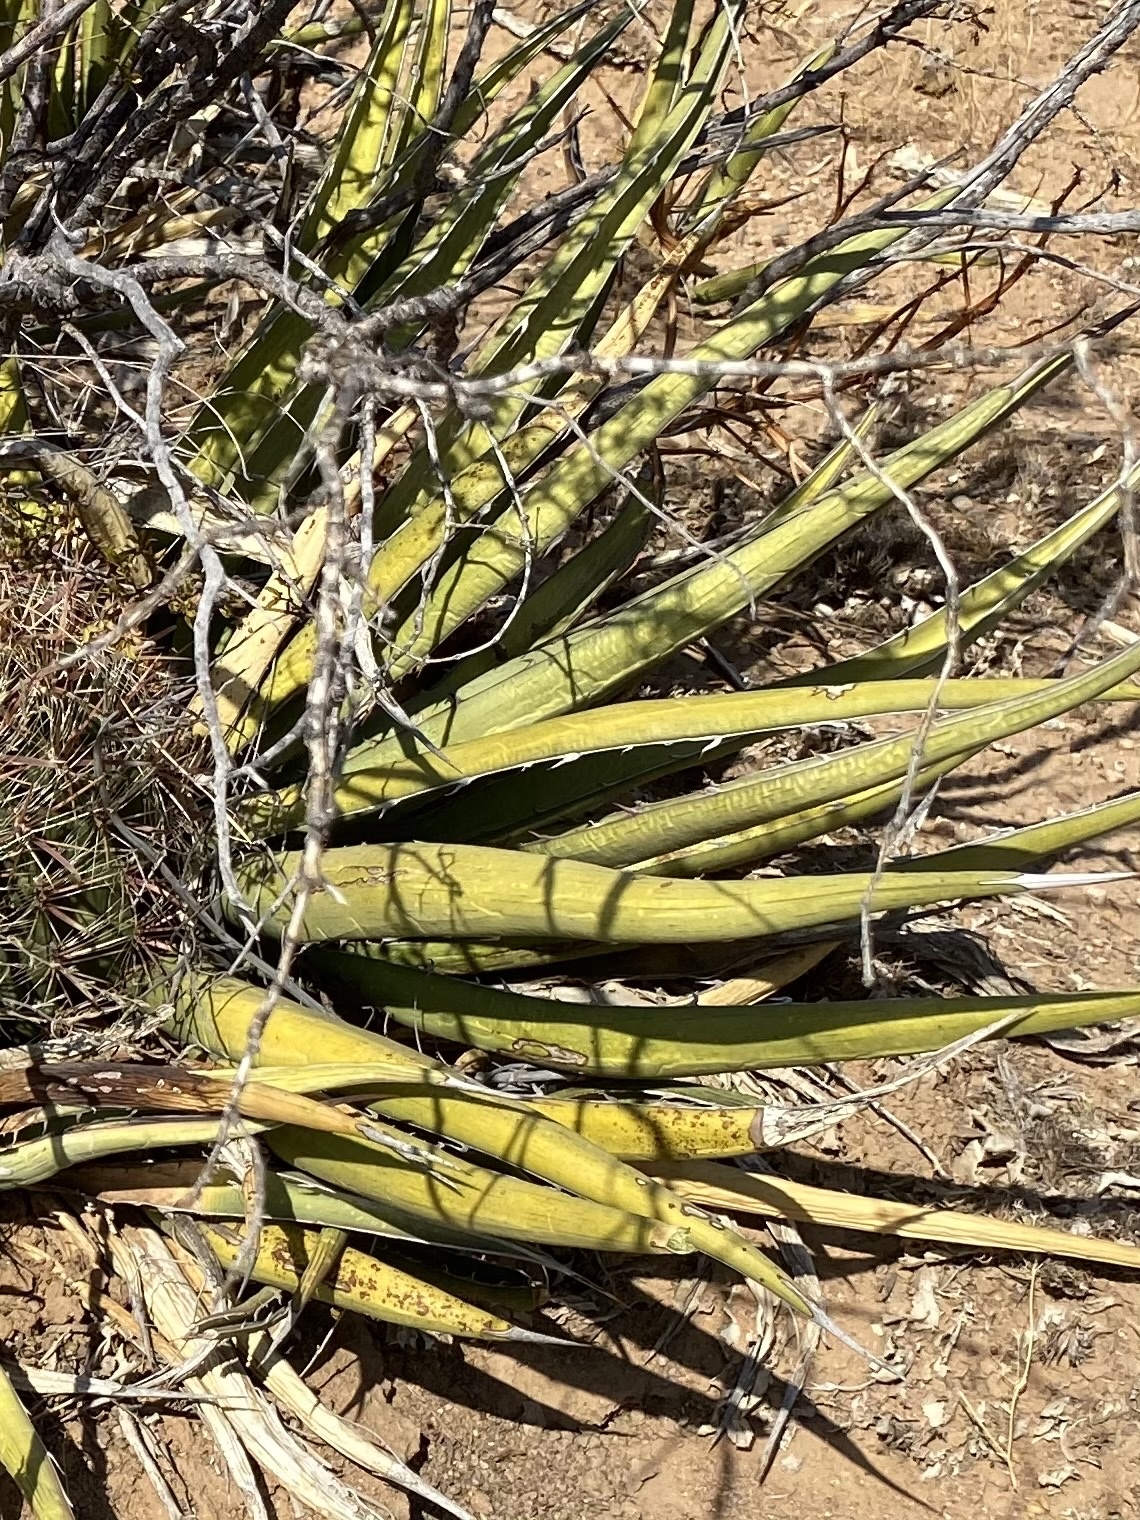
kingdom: Plantae
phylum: Tracheophyta
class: Liliopsida
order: Asparagales
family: Asparagaceae
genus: Agave
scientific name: Agave lechuguilla
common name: Lecheguilla agave
